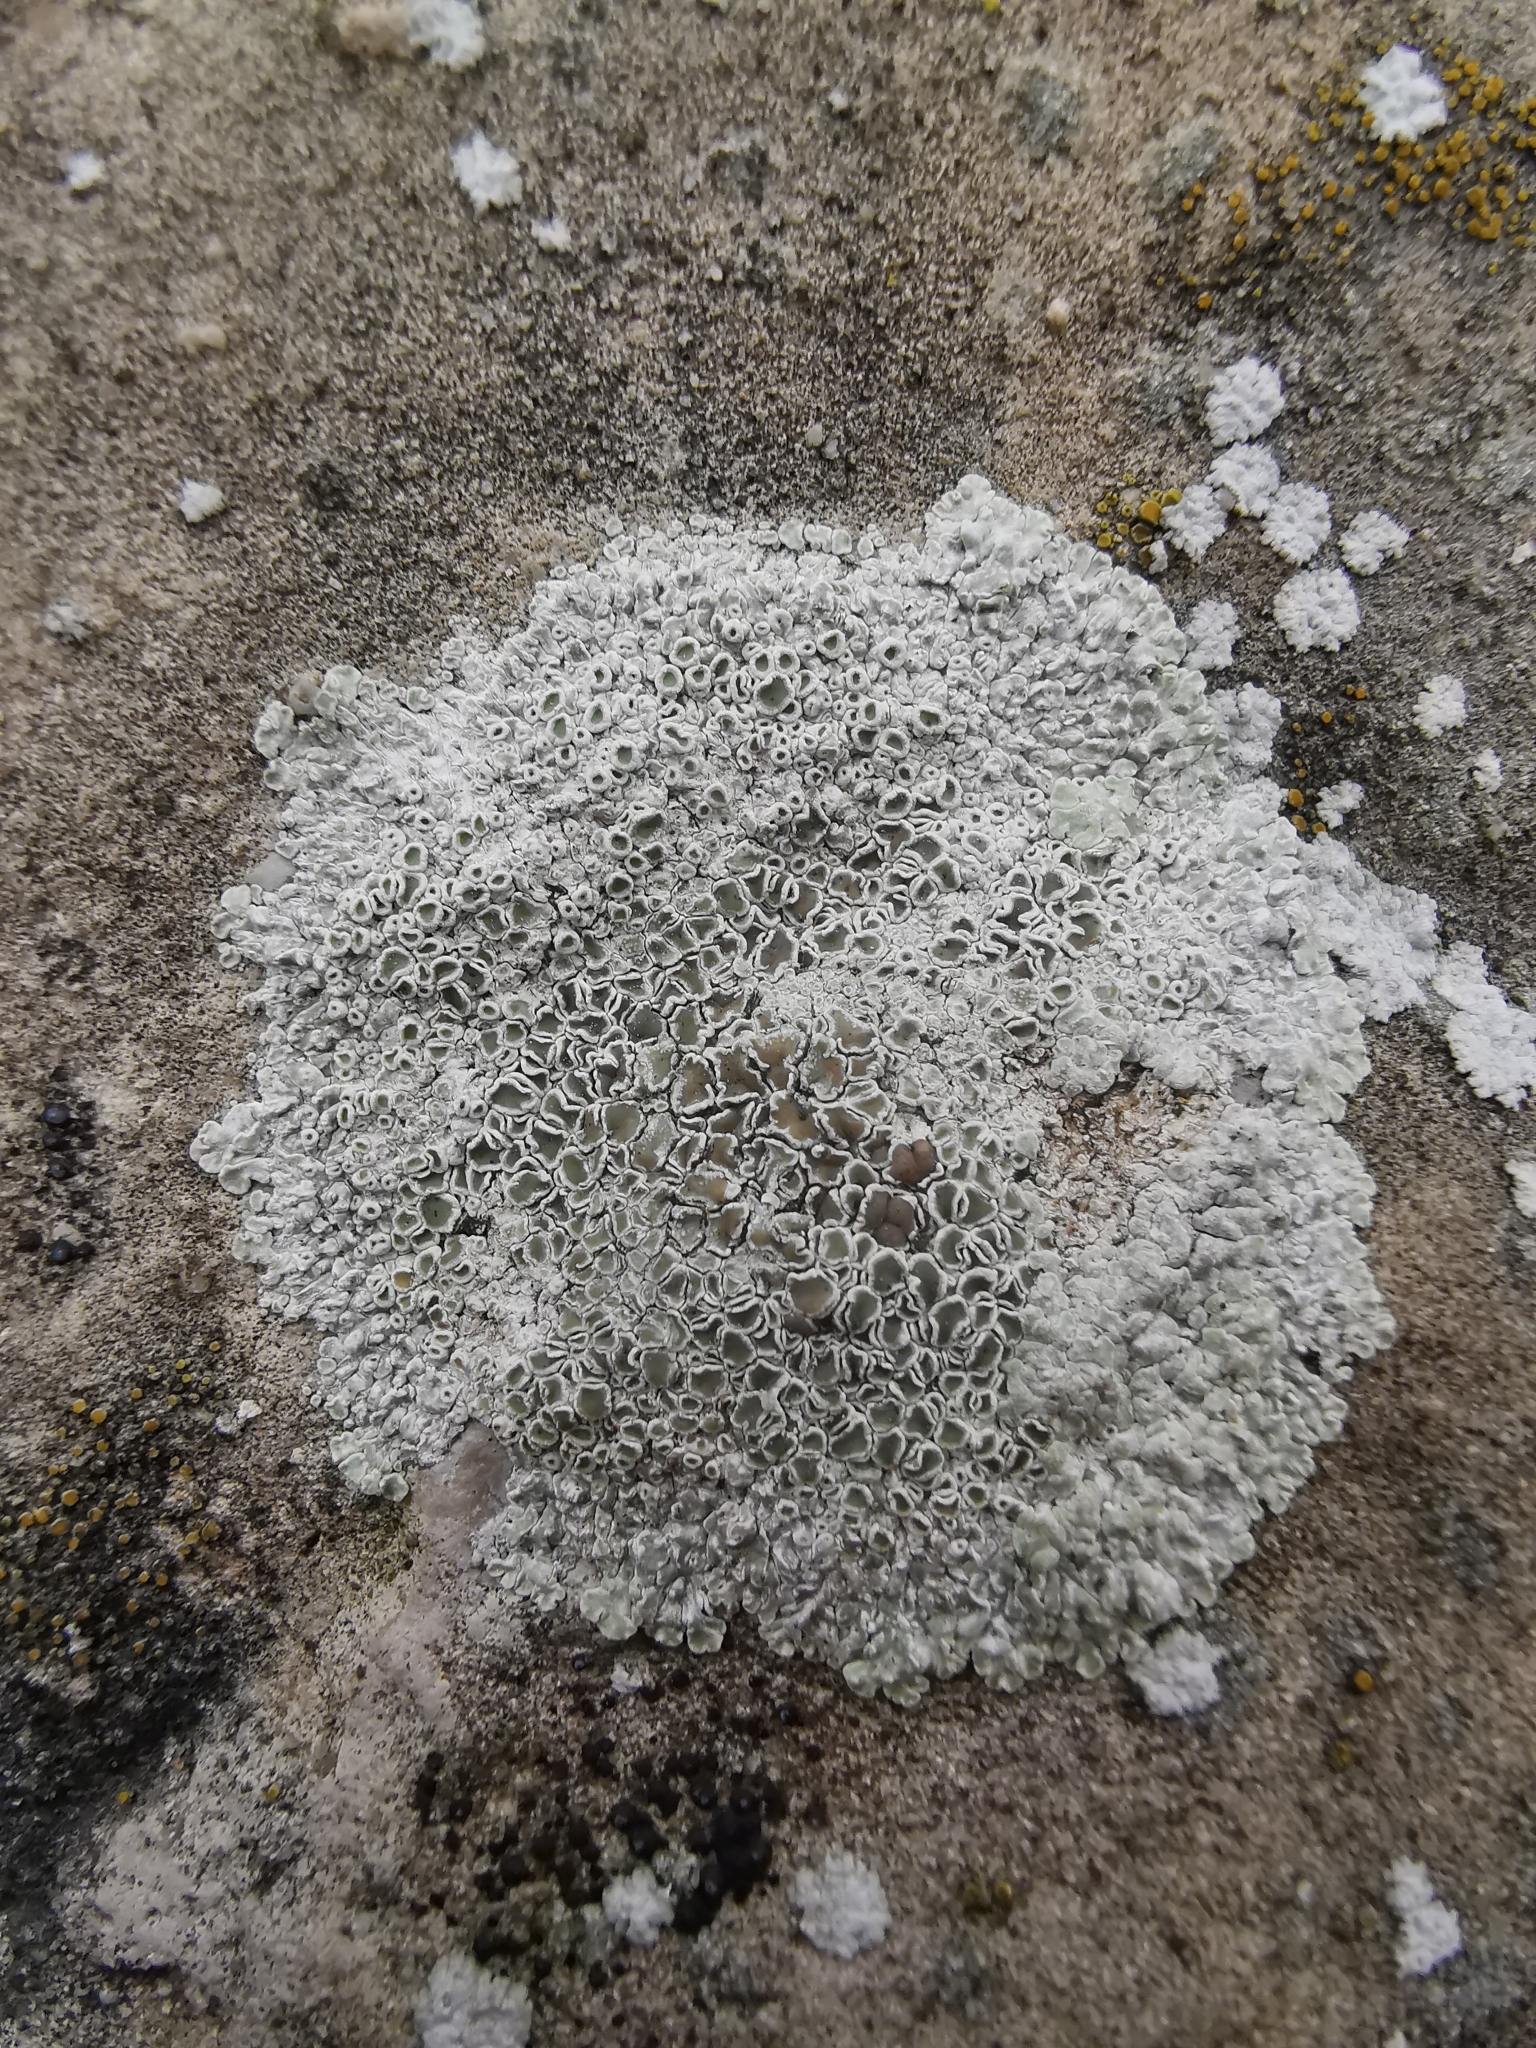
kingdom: Fungi
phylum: Ascomycota
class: Lecanoromycetes
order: Lecanorales
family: Lecanoraceae
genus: Protoparmeliopsis
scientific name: Protoparmeliopsis muralis
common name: Stonewall rim lichen
